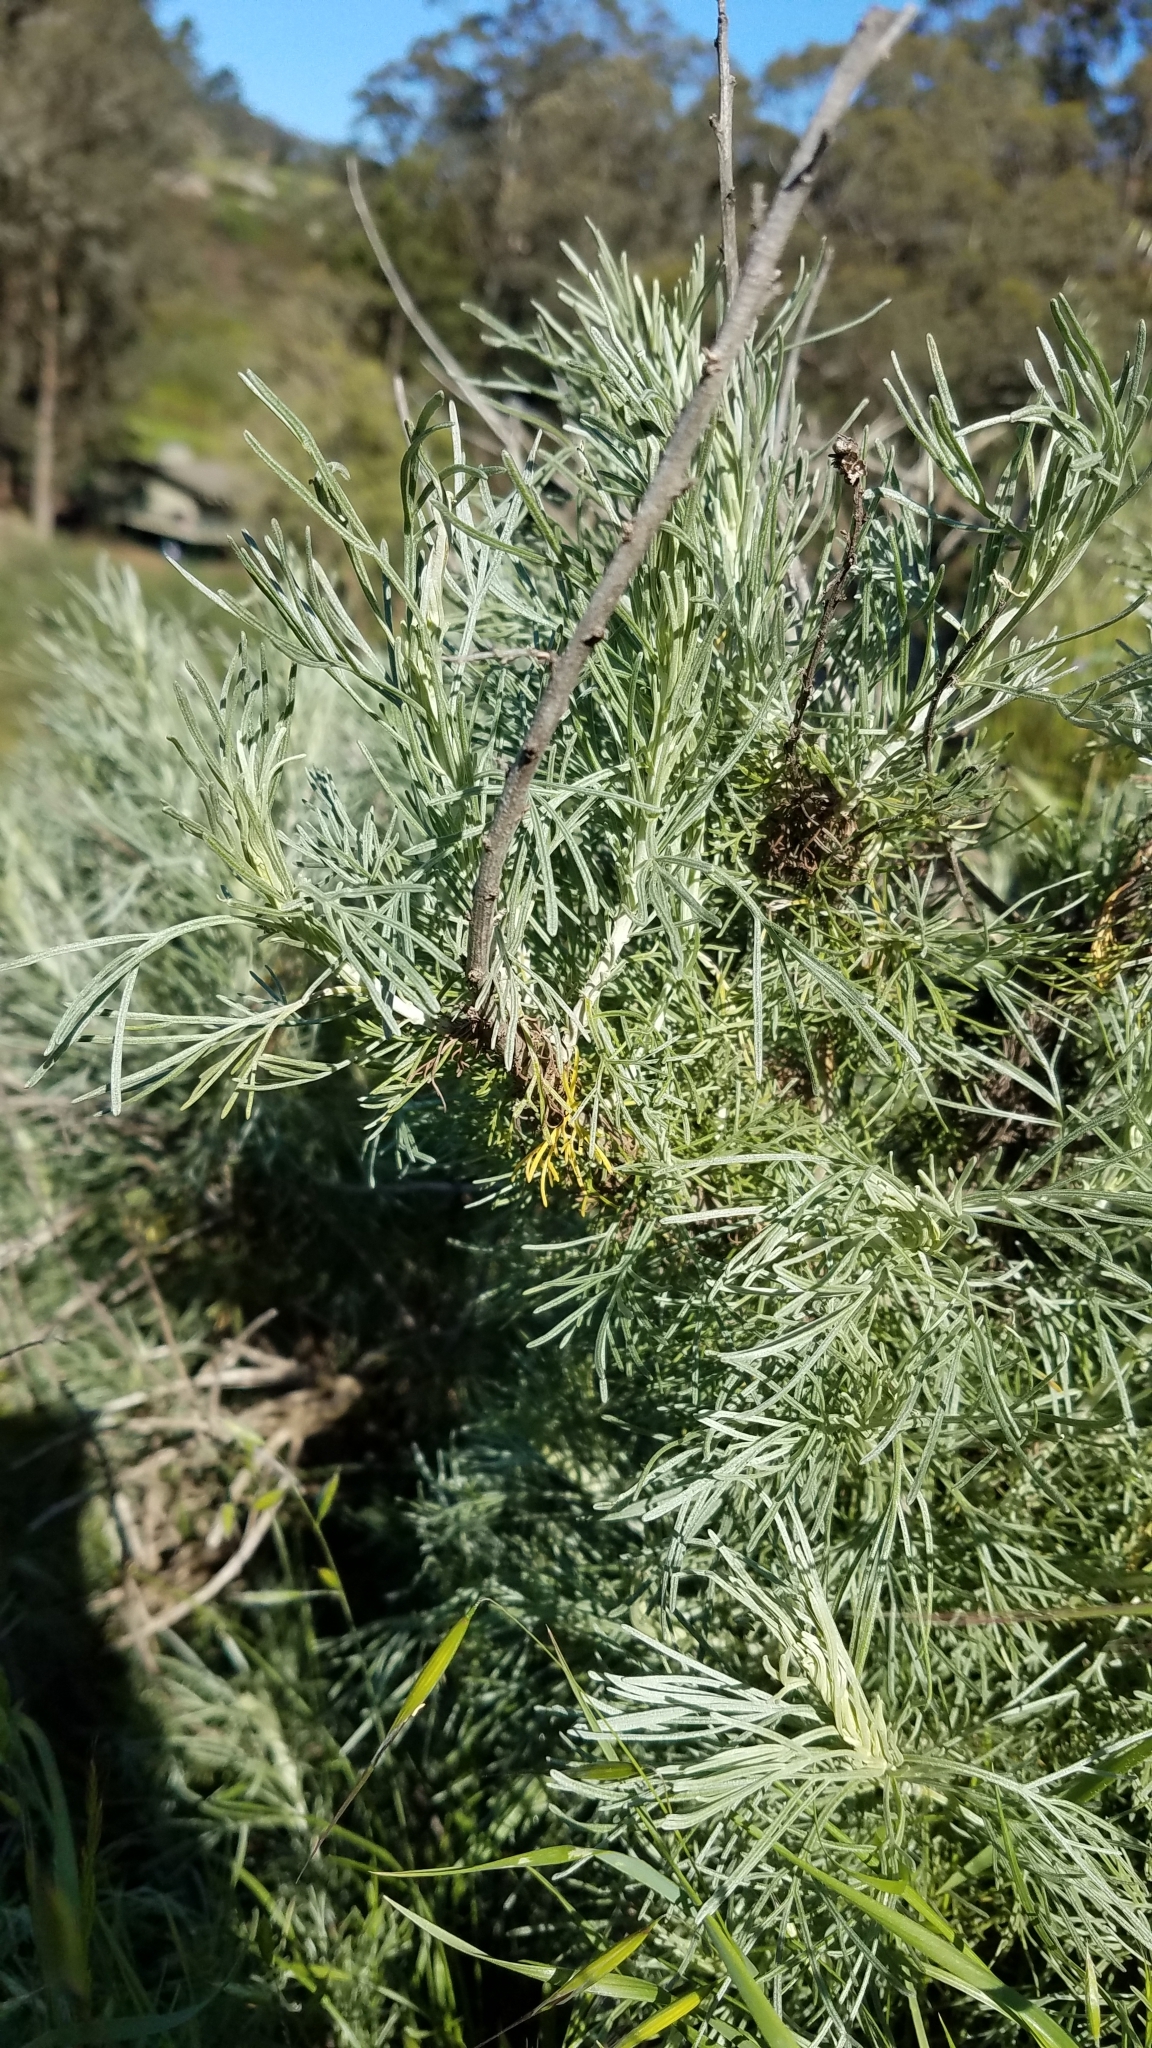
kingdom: Plantae
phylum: Tracheophyta
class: Magnoliopsida
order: Asterales
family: Asteraceae
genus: Artemisia
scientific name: Artemisia californica
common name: California sagebrush
